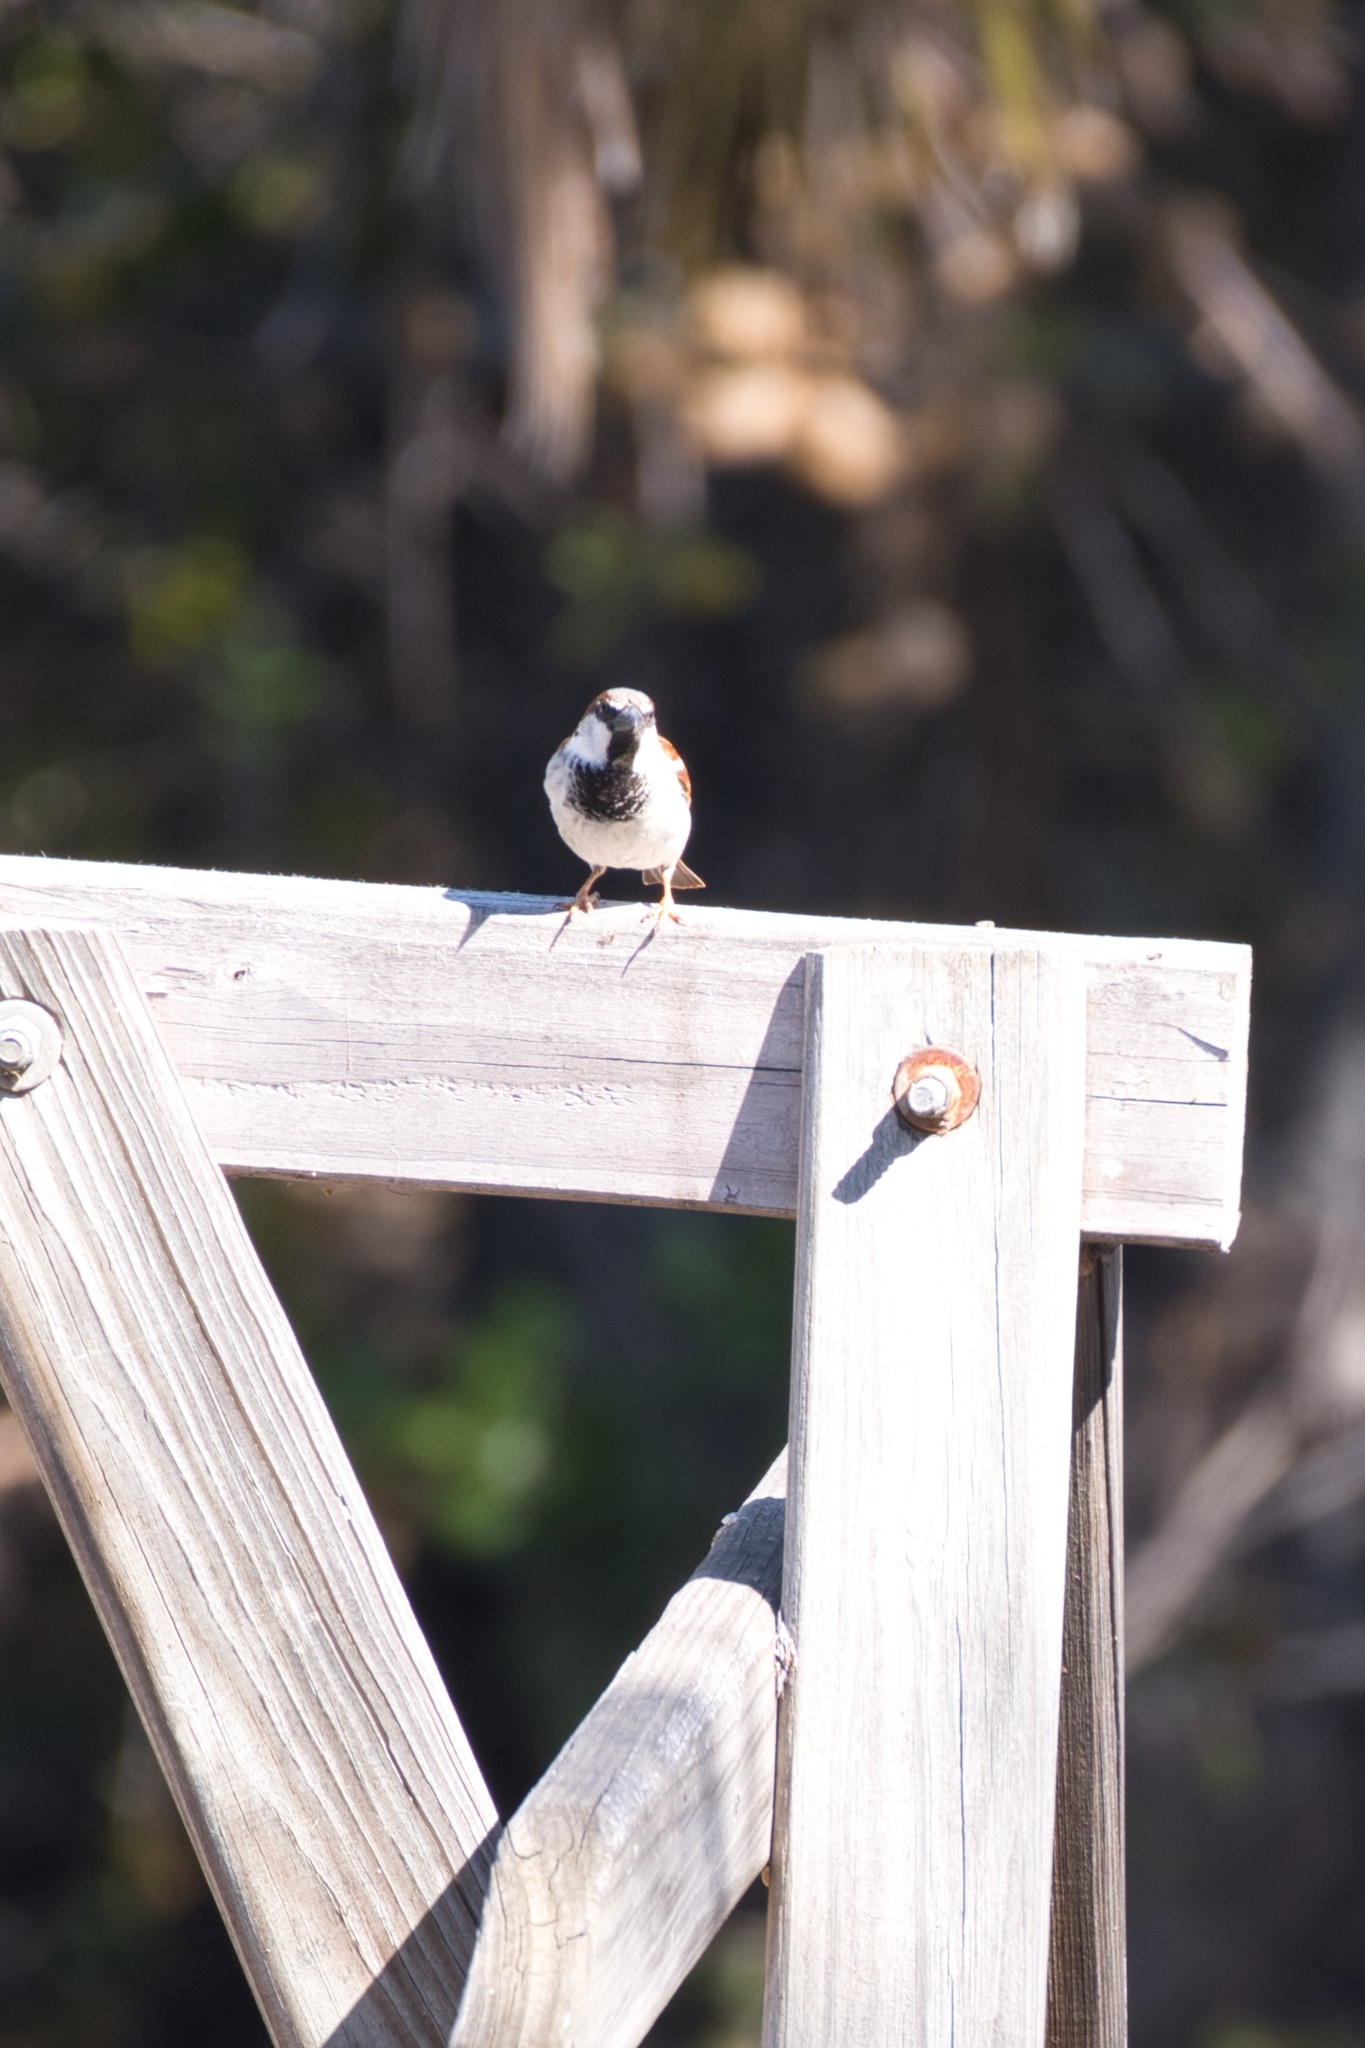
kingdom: Animalia
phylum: Chordata
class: Aves
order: Passeriformes
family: Passeridae
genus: Passer
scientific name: Passer domesticus
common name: House sparrow
